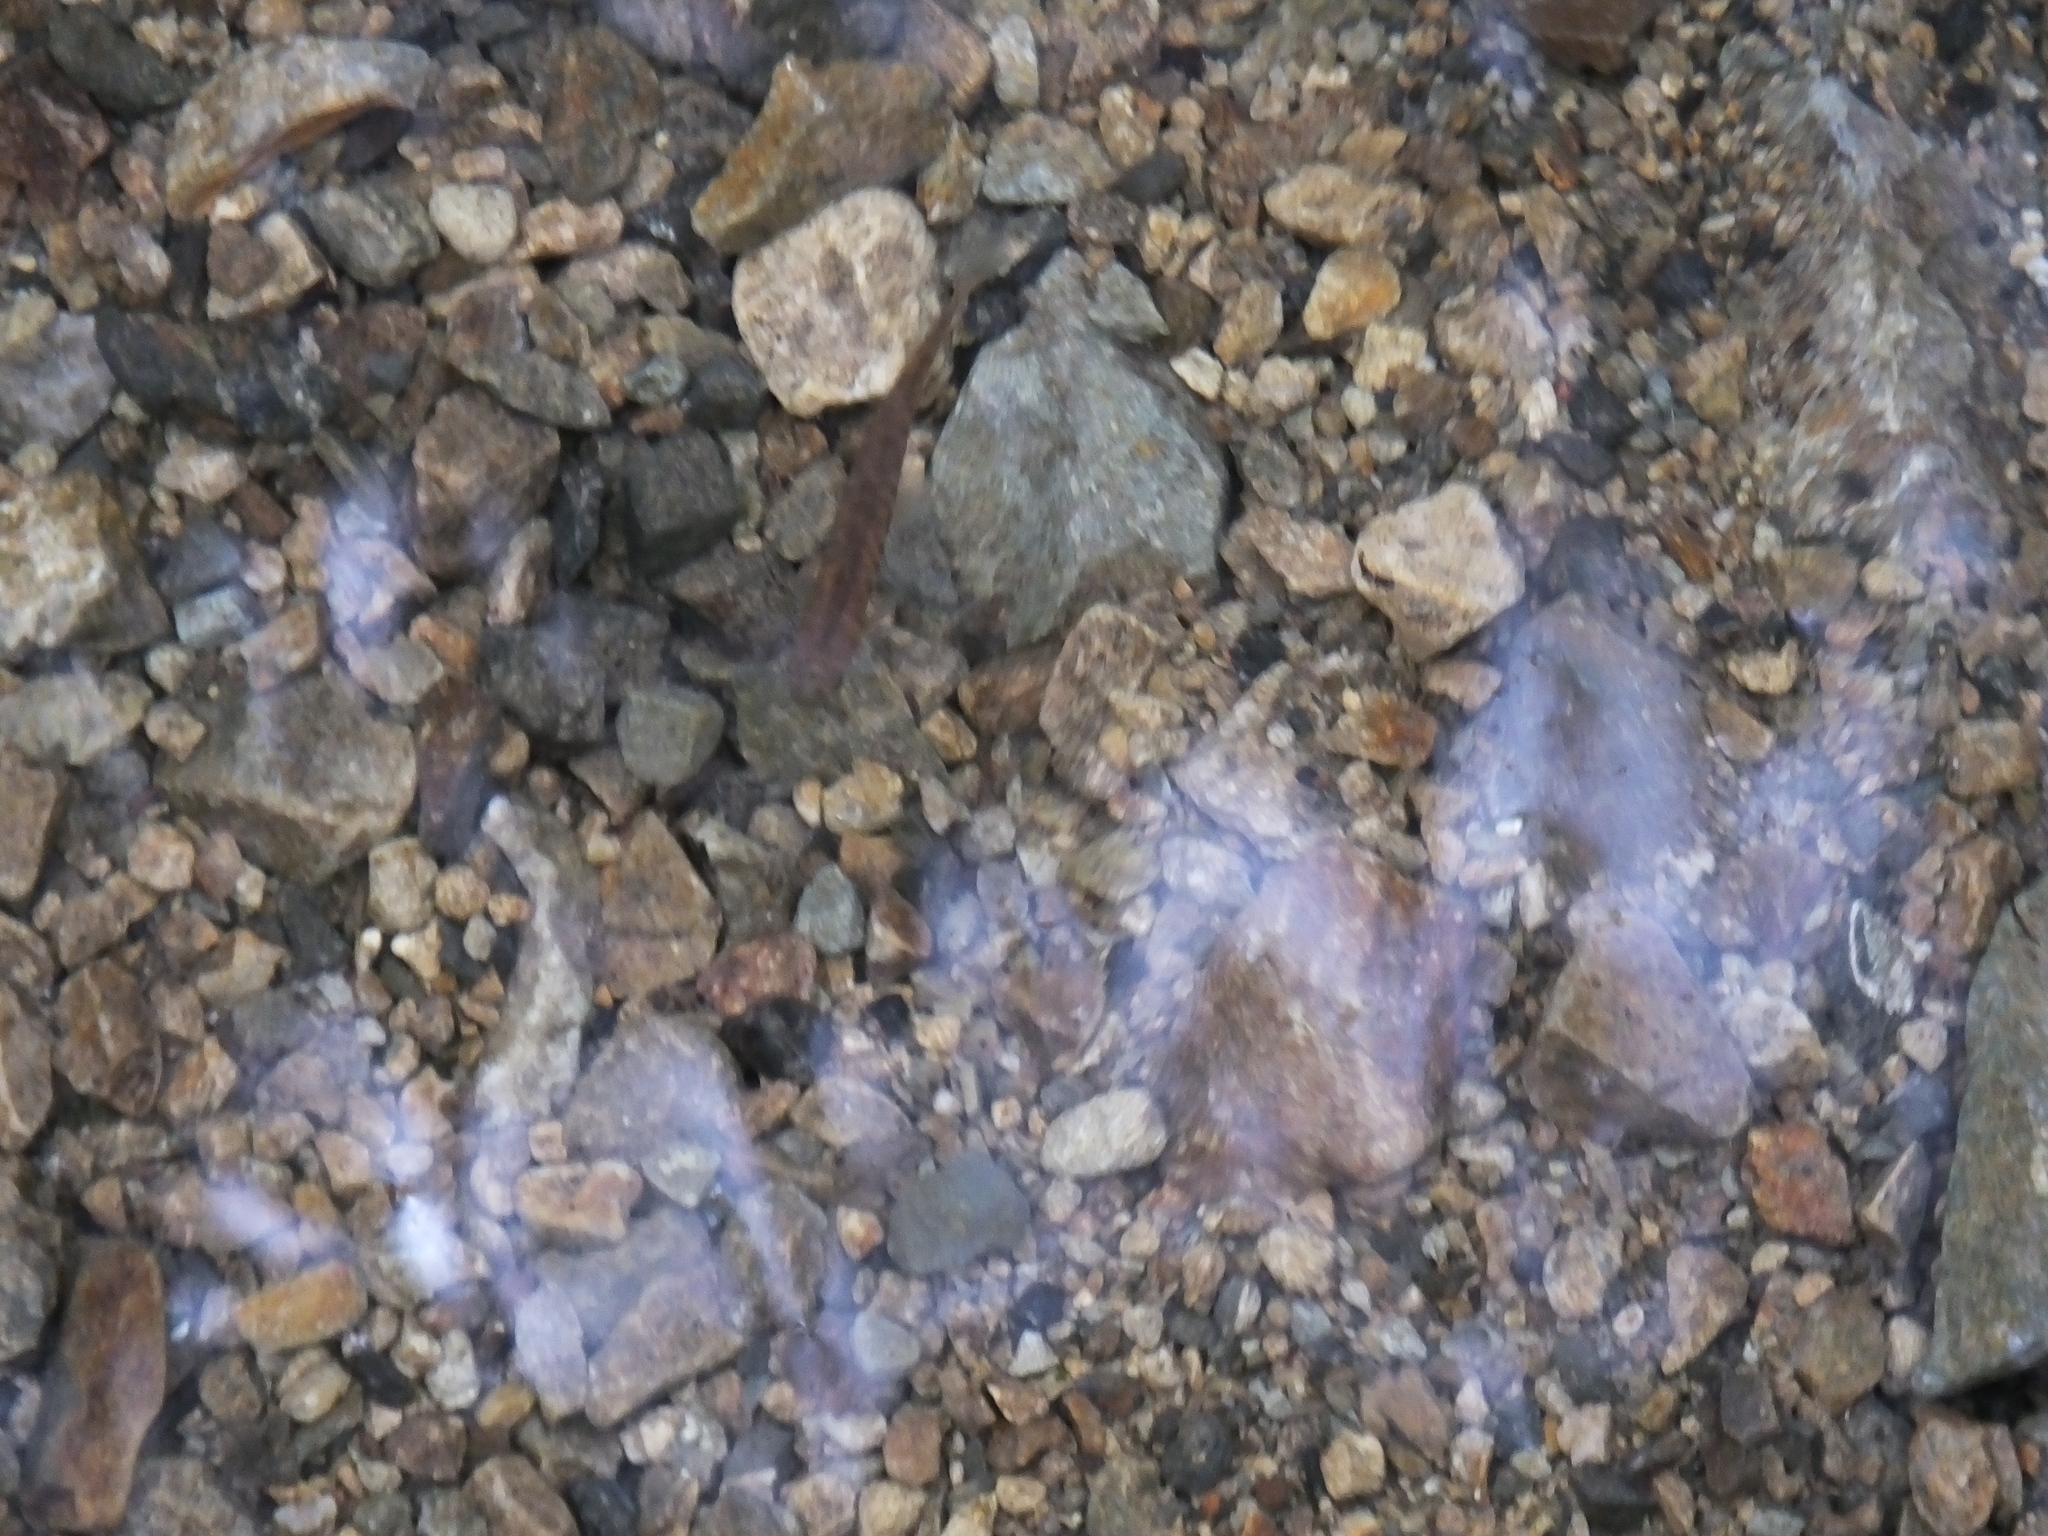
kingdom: Animalia
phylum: Chordata
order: Osmeriformes
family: Galaxiidae
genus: Galaxias
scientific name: Galaxias fasciatus
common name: Banded kokopu
